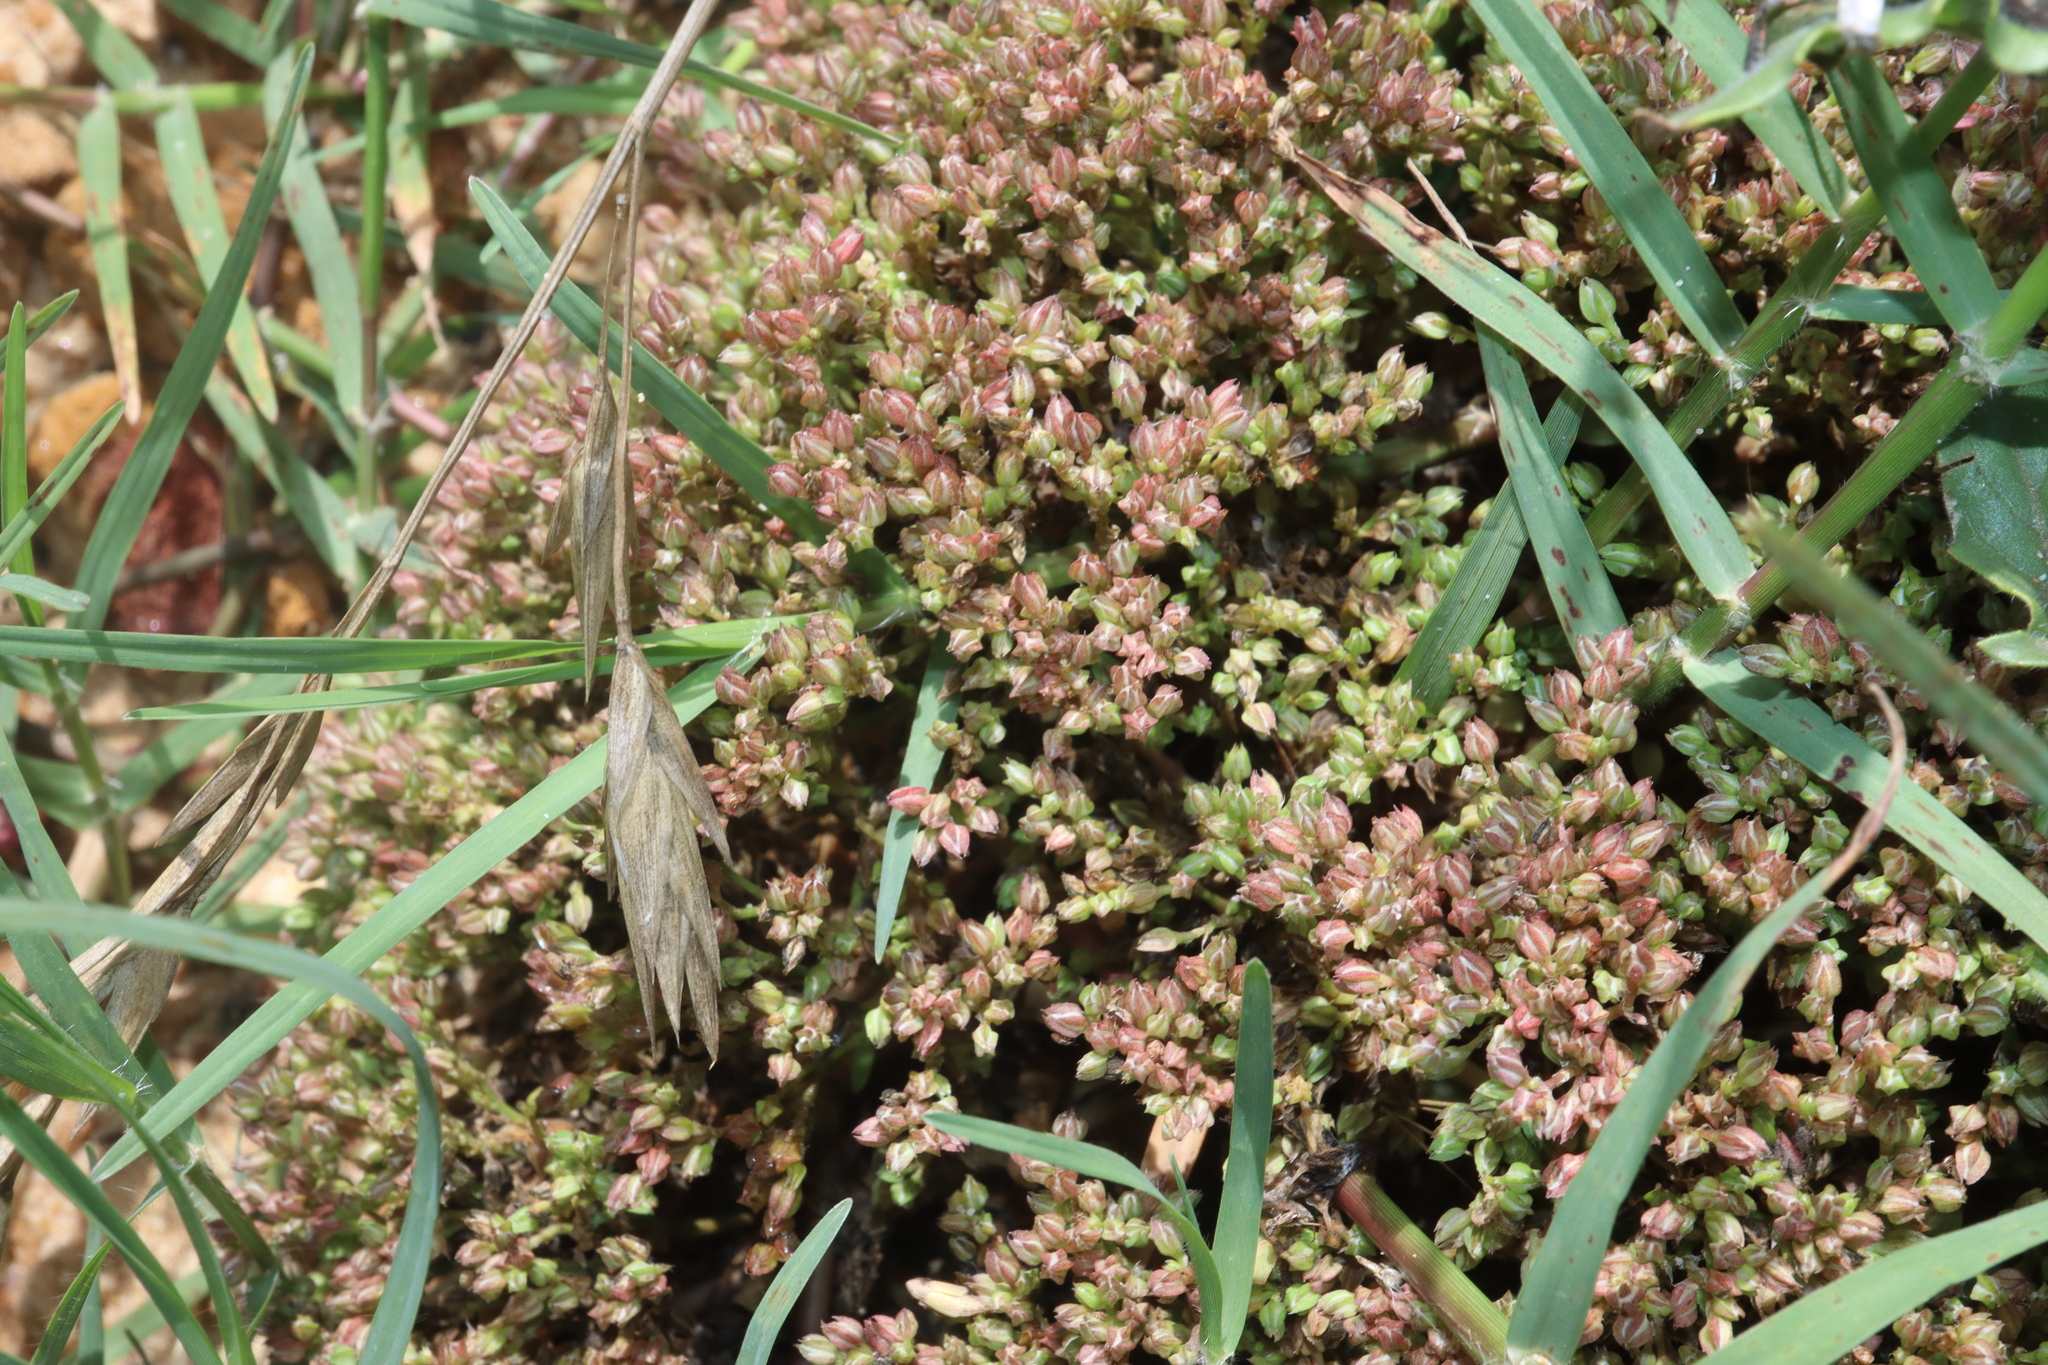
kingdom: Plantae
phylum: Tracheophyta
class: Magnoliopsida
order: Caryophyllales
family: Caryophyllaceae
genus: Polycarpon
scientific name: Polycarpon tetraphyllum
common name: Four-leaved all-seed
